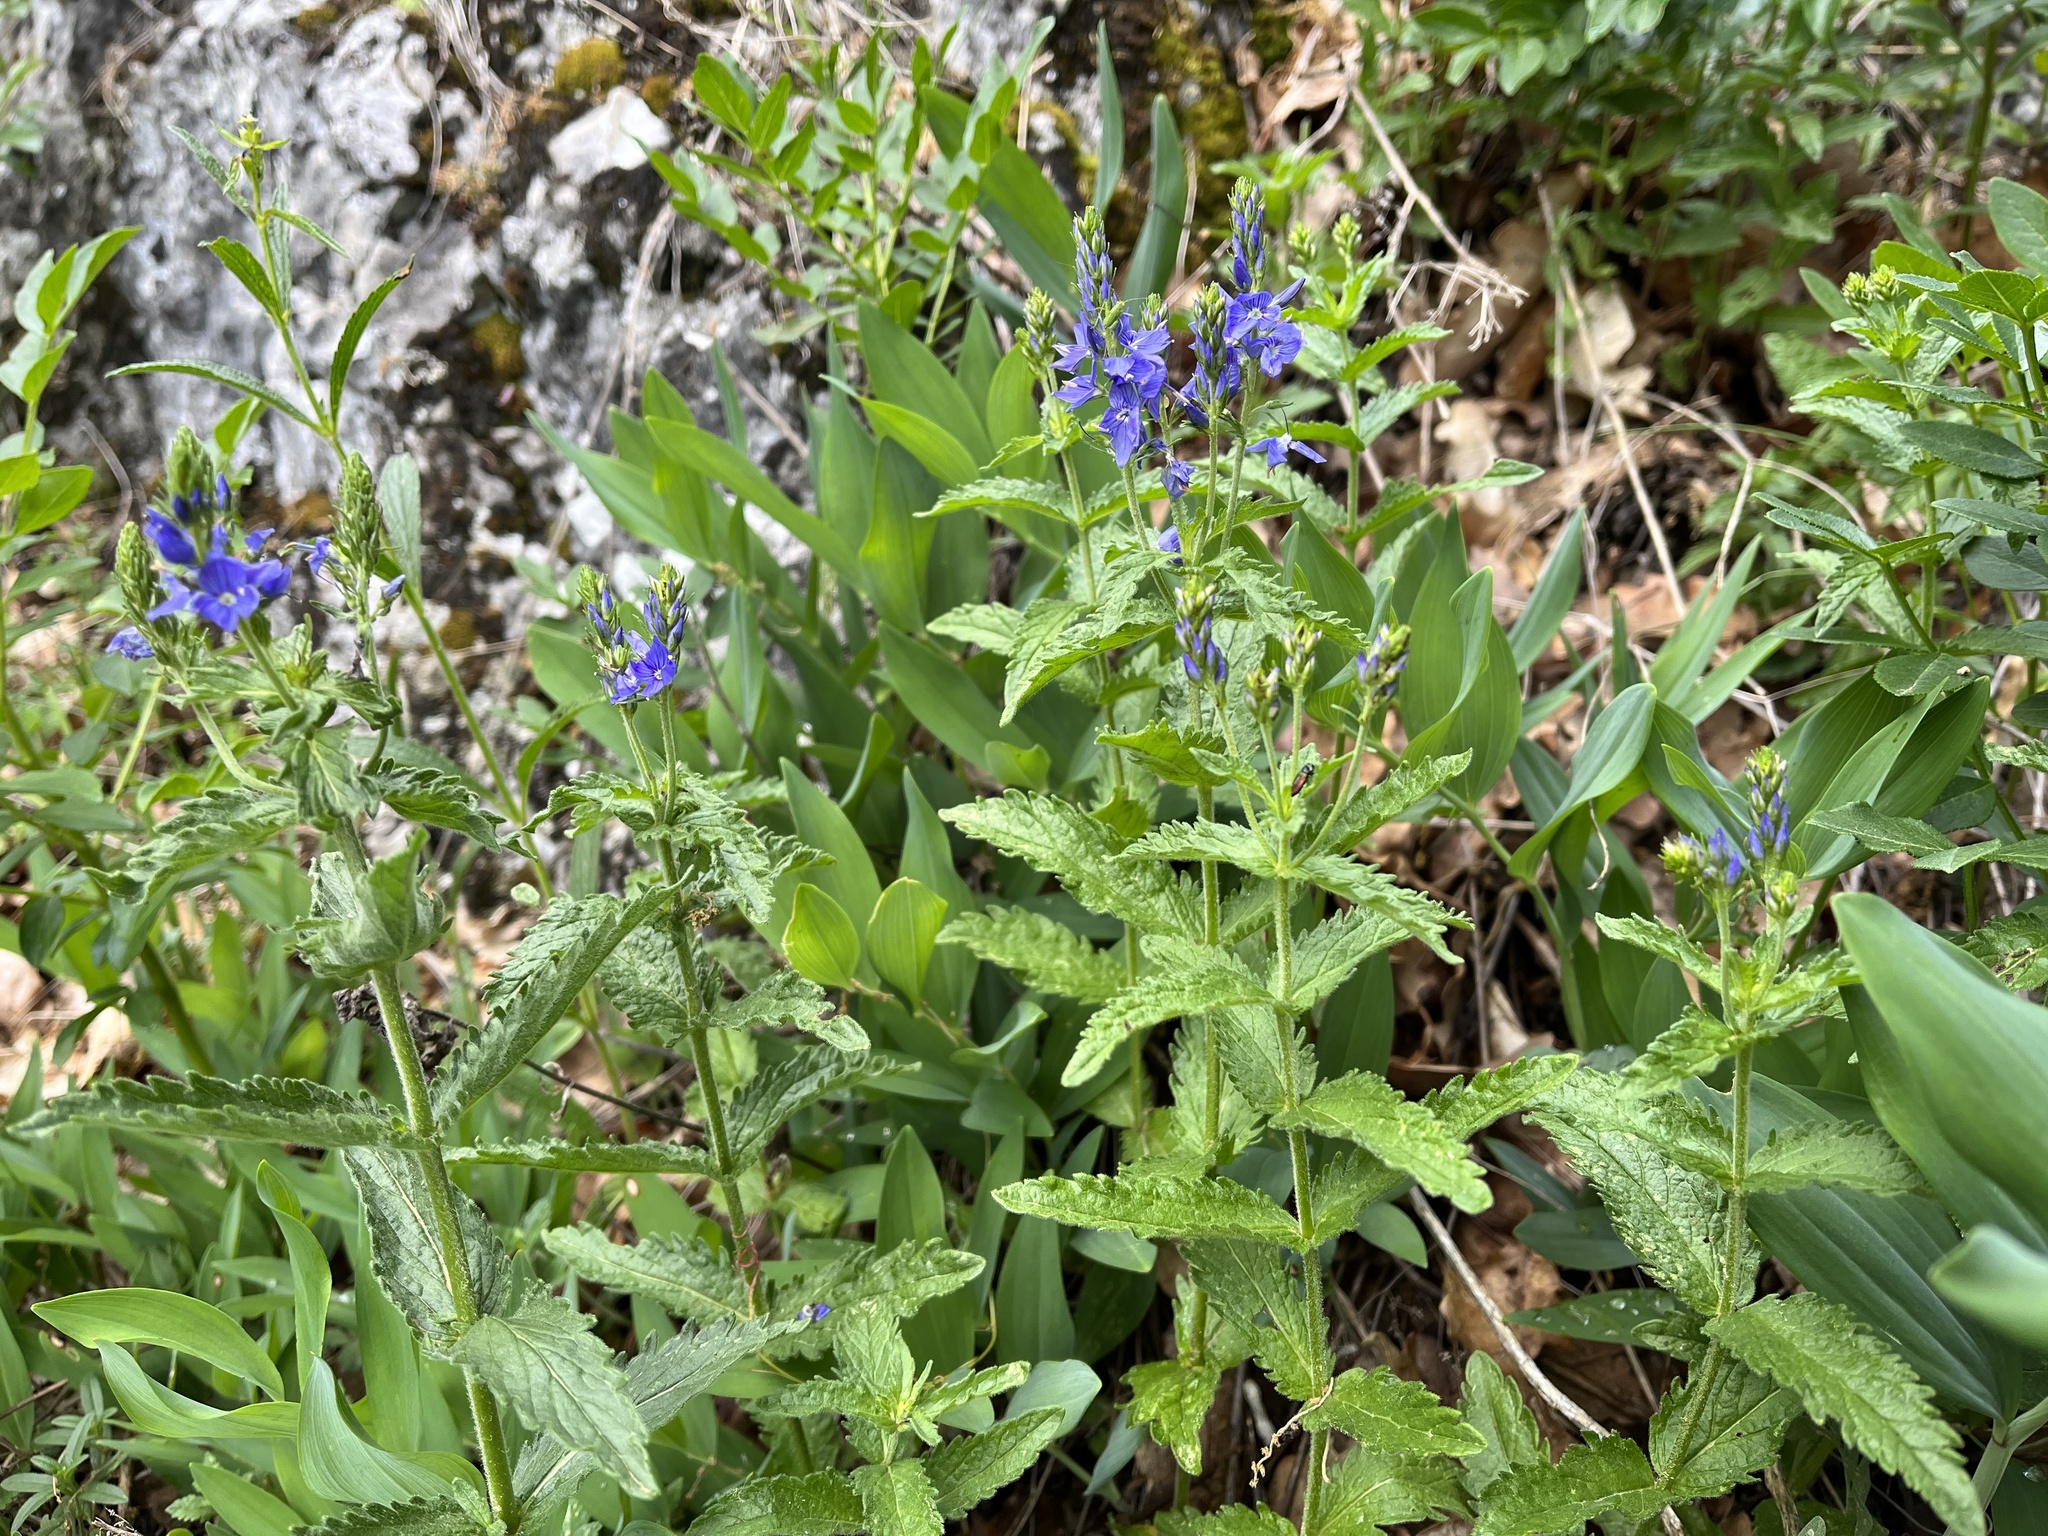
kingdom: Plantae
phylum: Tracheophyta
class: Magnoliopsida
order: Lamiales
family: Plantaginaceae
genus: Veronica
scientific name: Veronica teucrium
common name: Large speedwell
